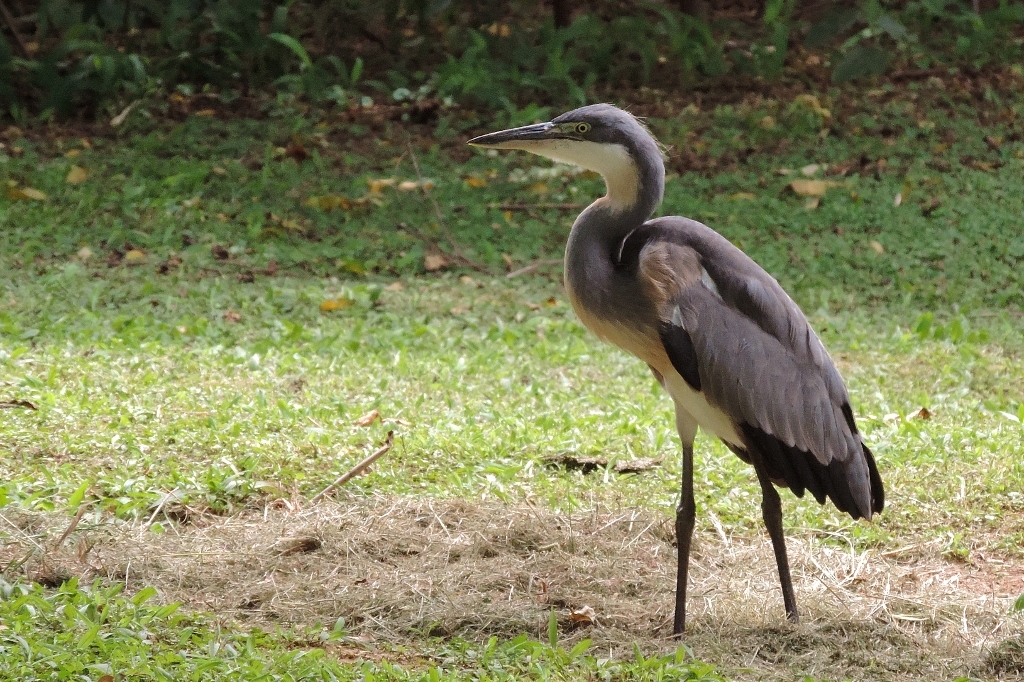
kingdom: Animalia
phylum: Chordata
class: Aves
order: Pelecaniformes
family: Ardeidae
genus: Ardea
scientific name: Ardea melanocephala
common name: Black-headed heron
